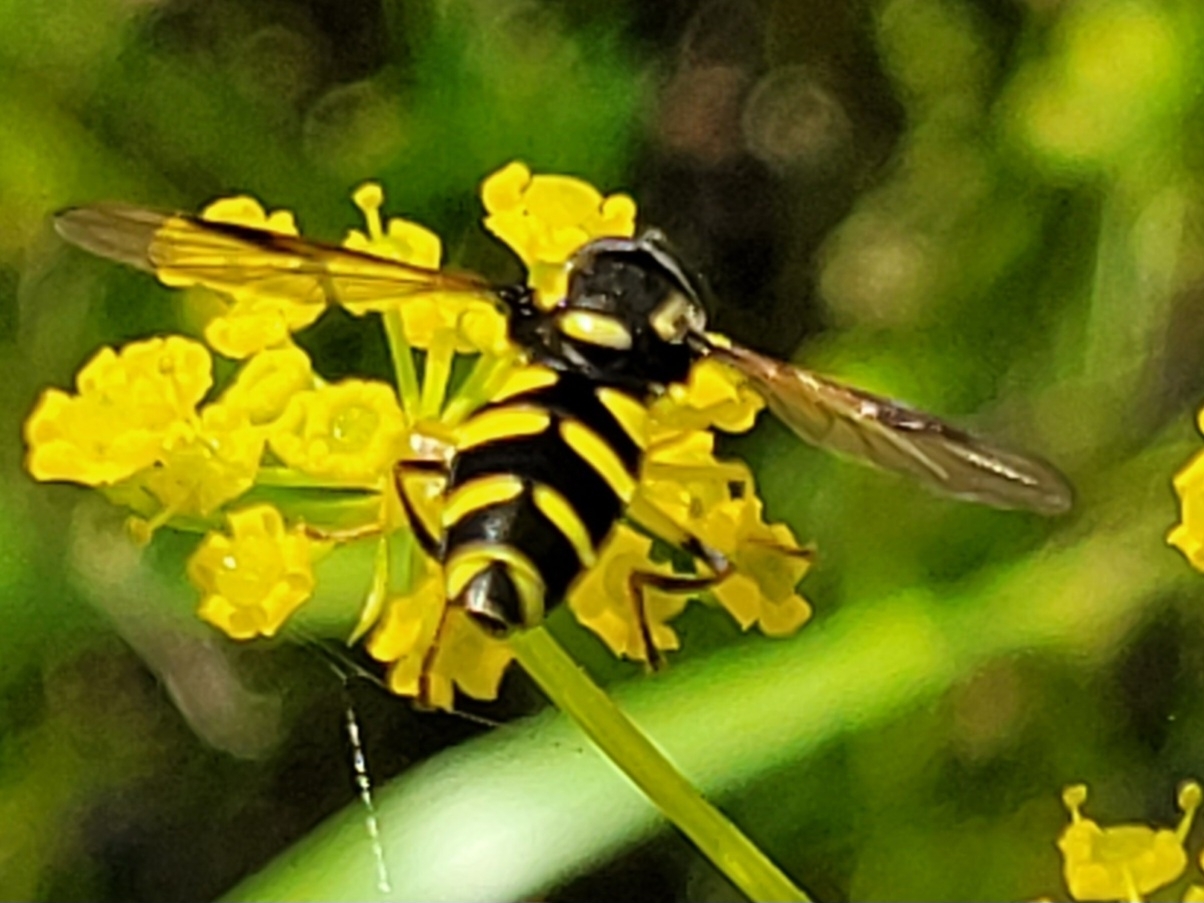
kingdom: Animalia
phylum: Arthropoda
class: Insecta
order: Diptera
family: Syrphidae
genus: Philhelius
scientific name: Philhelius pedissequum
